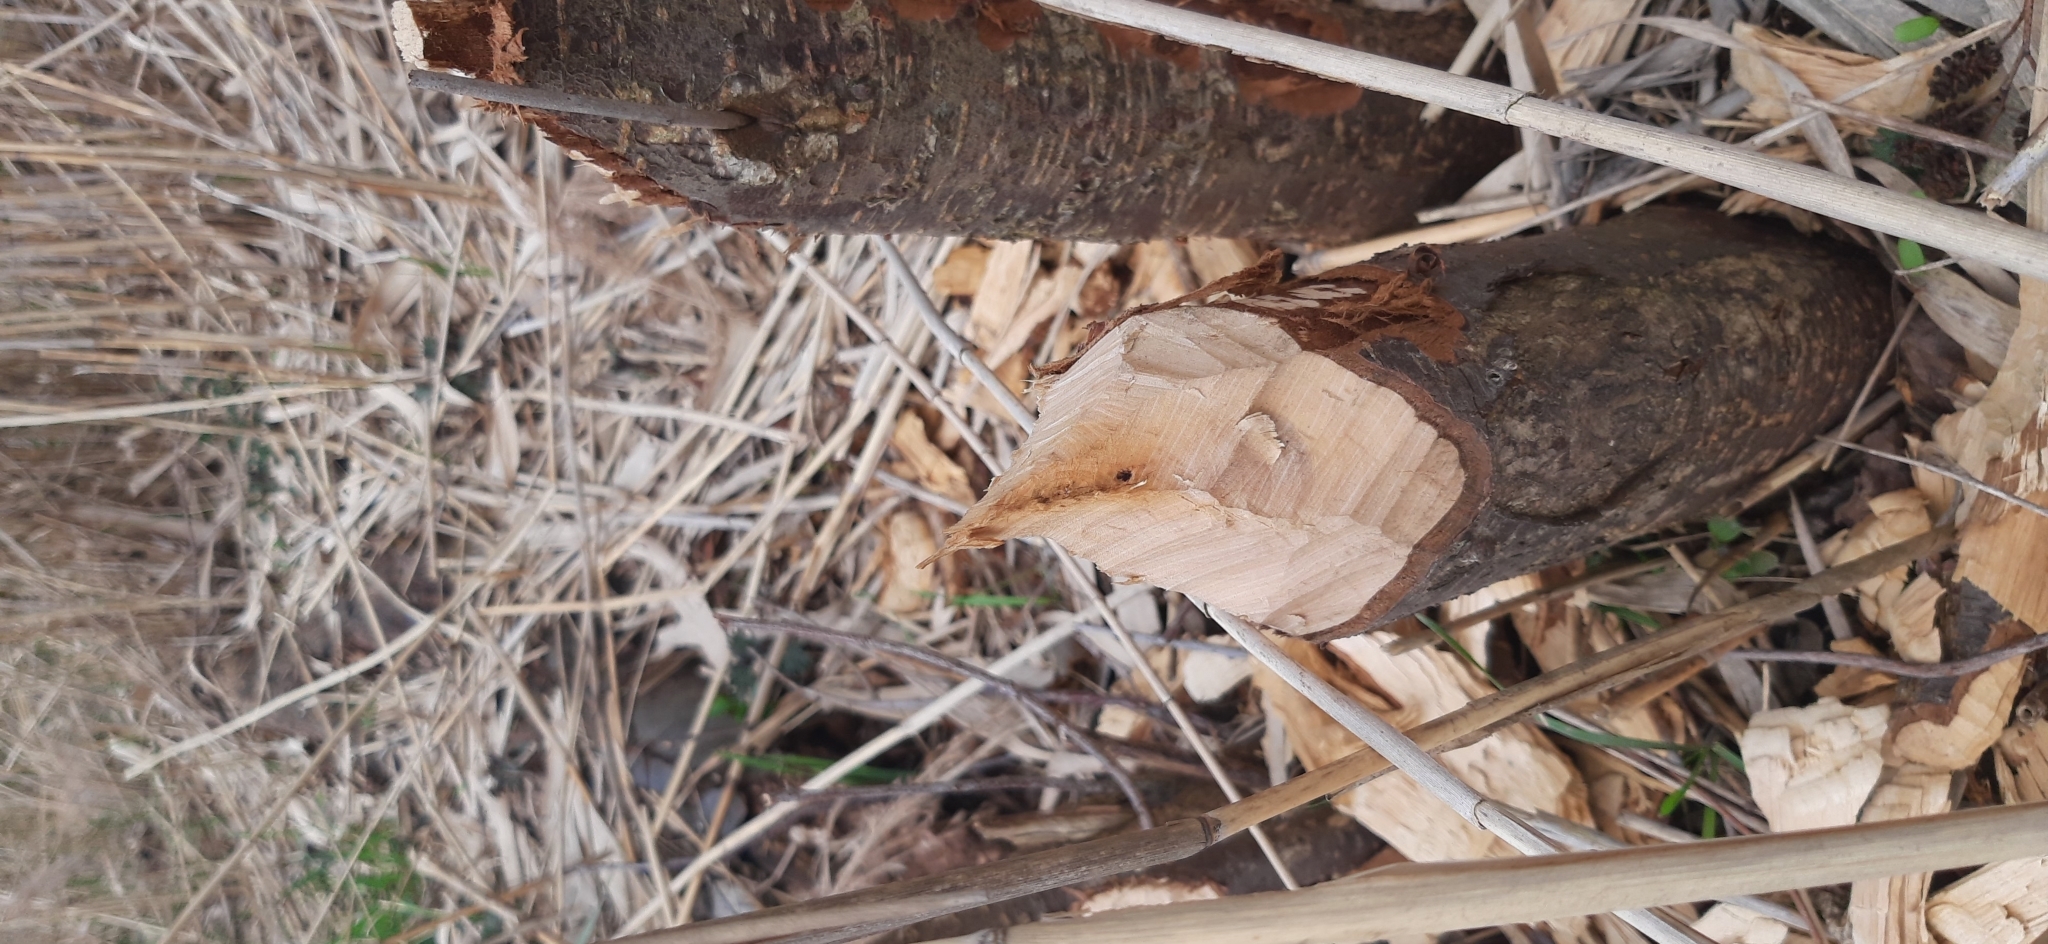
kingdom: Animalia
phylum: Chordata
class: Mammalia
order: Rodentia
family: Castoridae
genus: Castor
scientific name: Castor fiber
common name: Eurasian beaver
